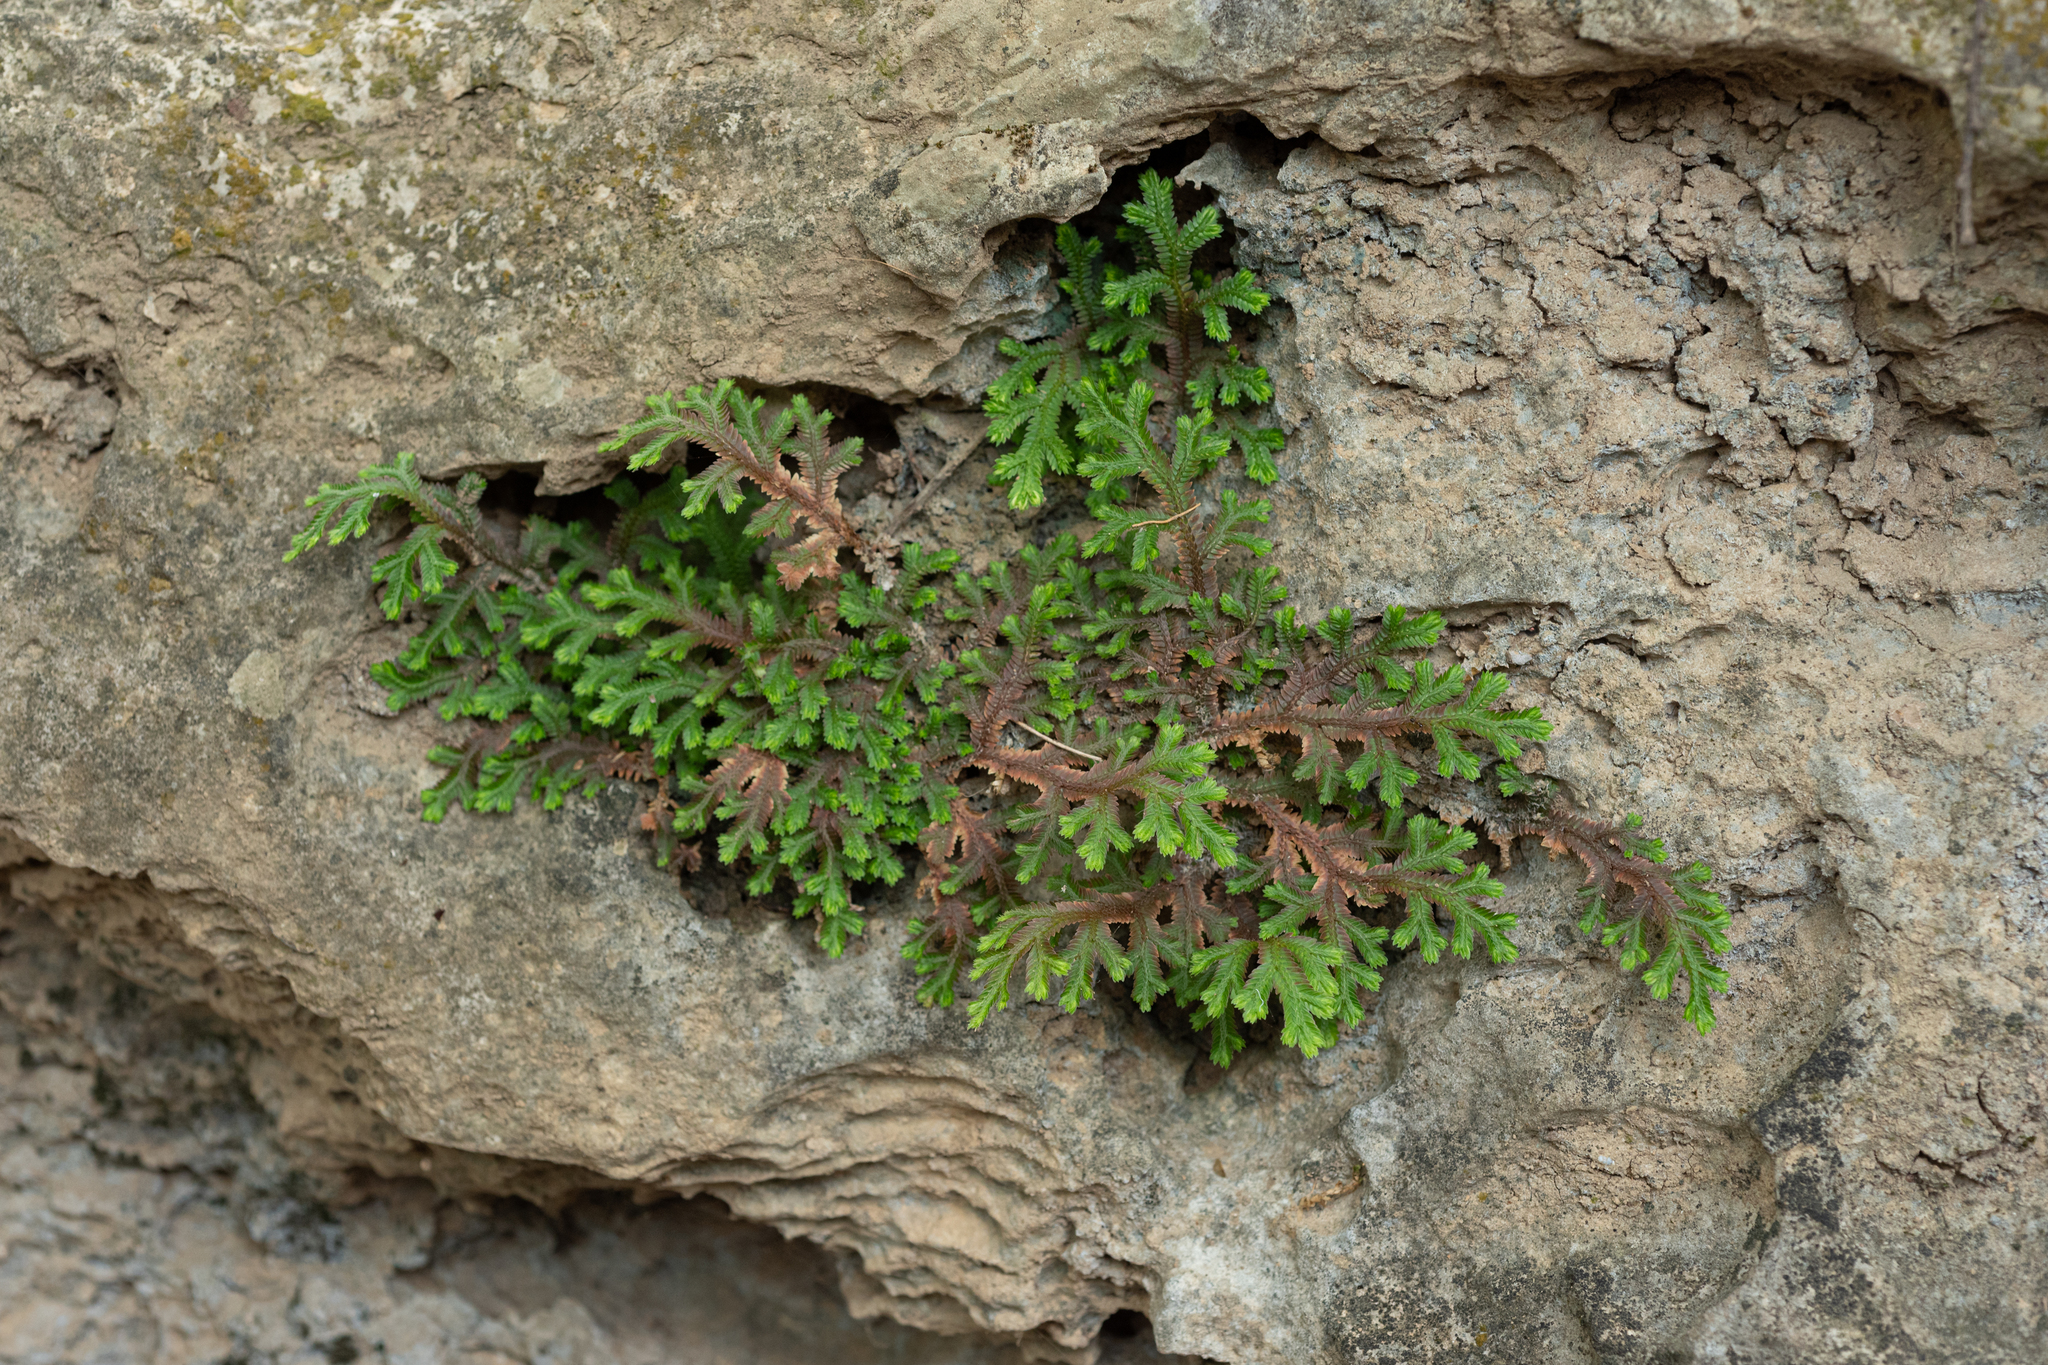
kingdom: Plantae
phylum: Tracheophyta
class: Lycopodiopsida
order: Selaginellales
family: Selaginellaceae
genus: Selaginella
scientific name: Selaginella repanda
